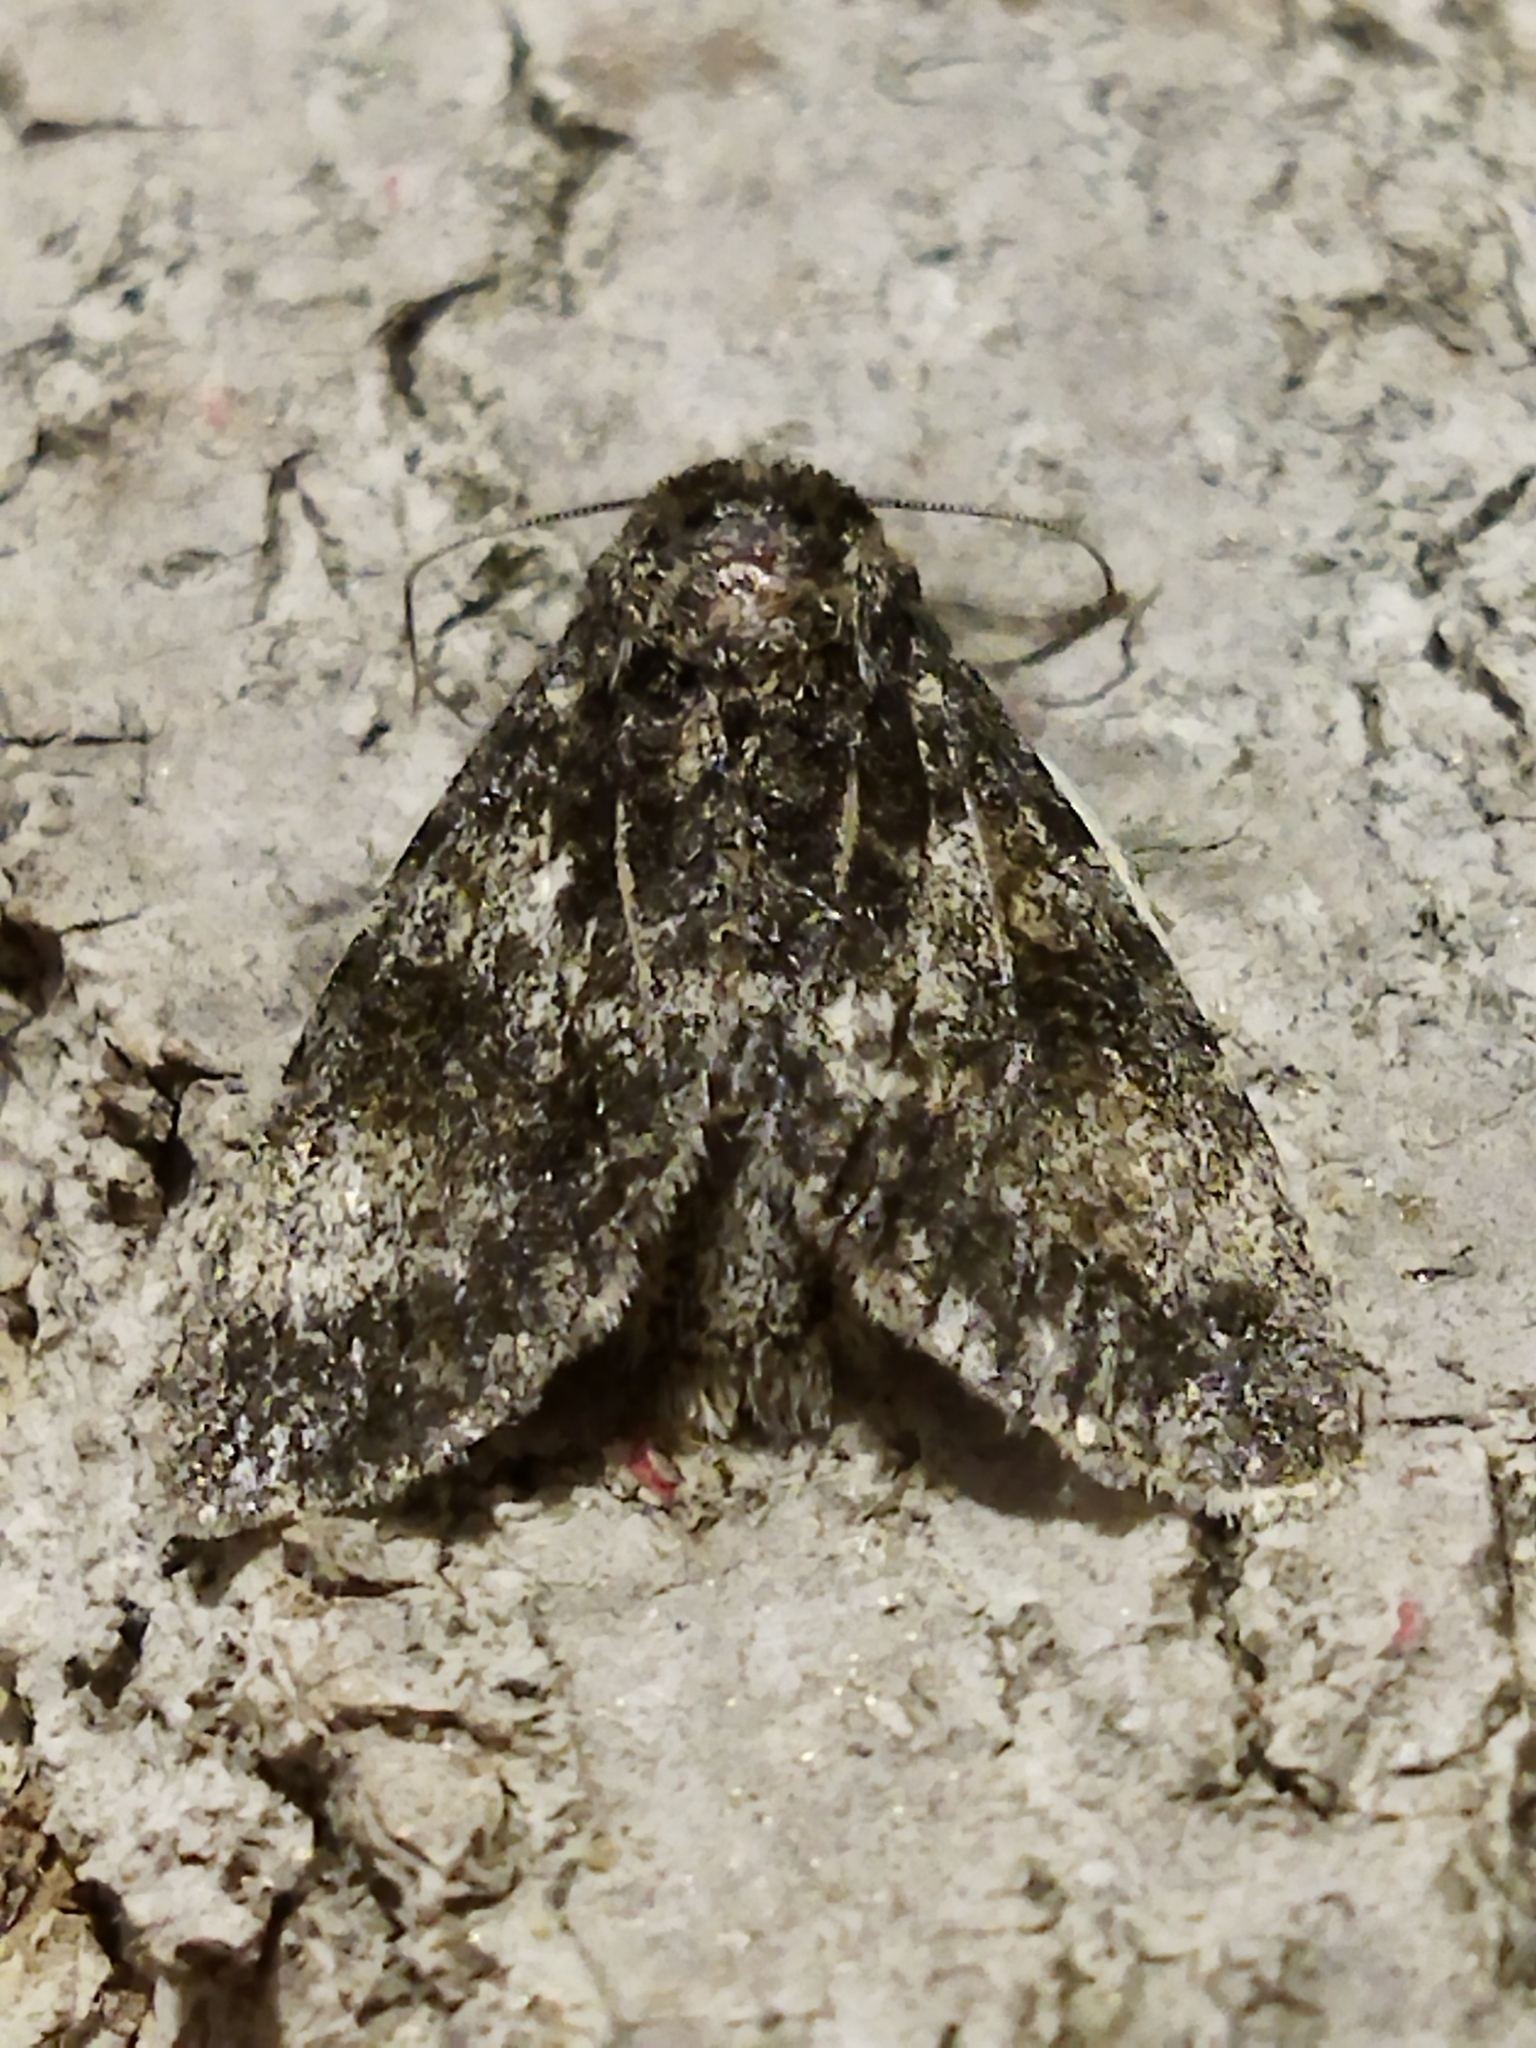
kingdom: Animalia
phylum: Arthropoda
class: Insecta
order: Lepidoptera
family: Noctuidae
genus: Acronicta
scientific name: Acronicta megacephala
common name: Poplar grey
